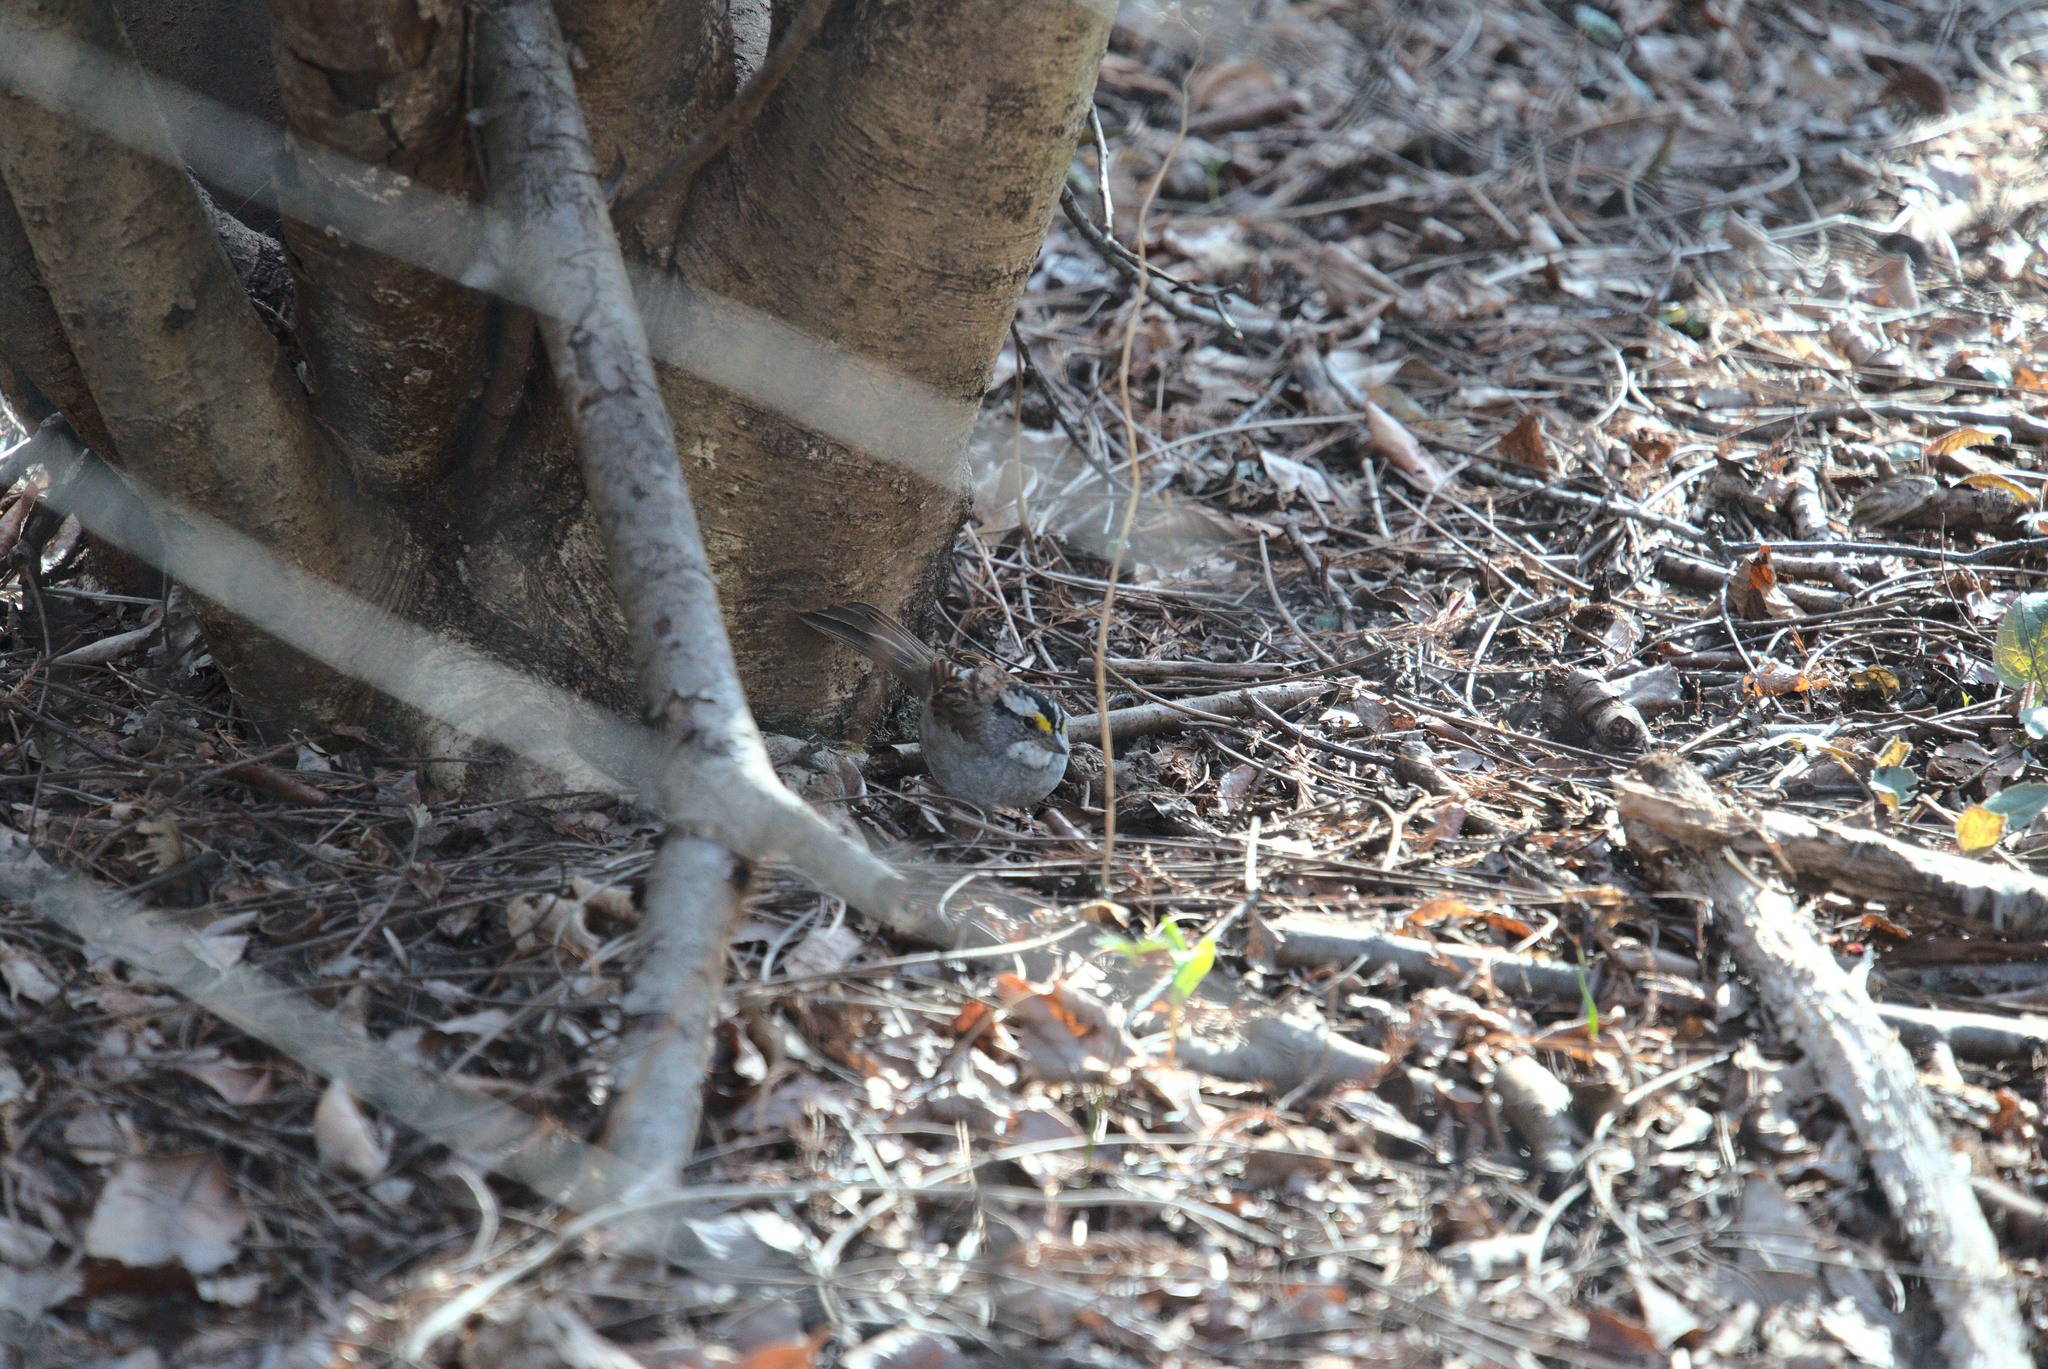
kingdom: Animalia
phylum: Chordata
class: Aves
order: Passeriformes
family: Passerellidae
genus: Zonotrichia
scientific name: Zonotrichia albicollis
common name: White-throated sparrow
